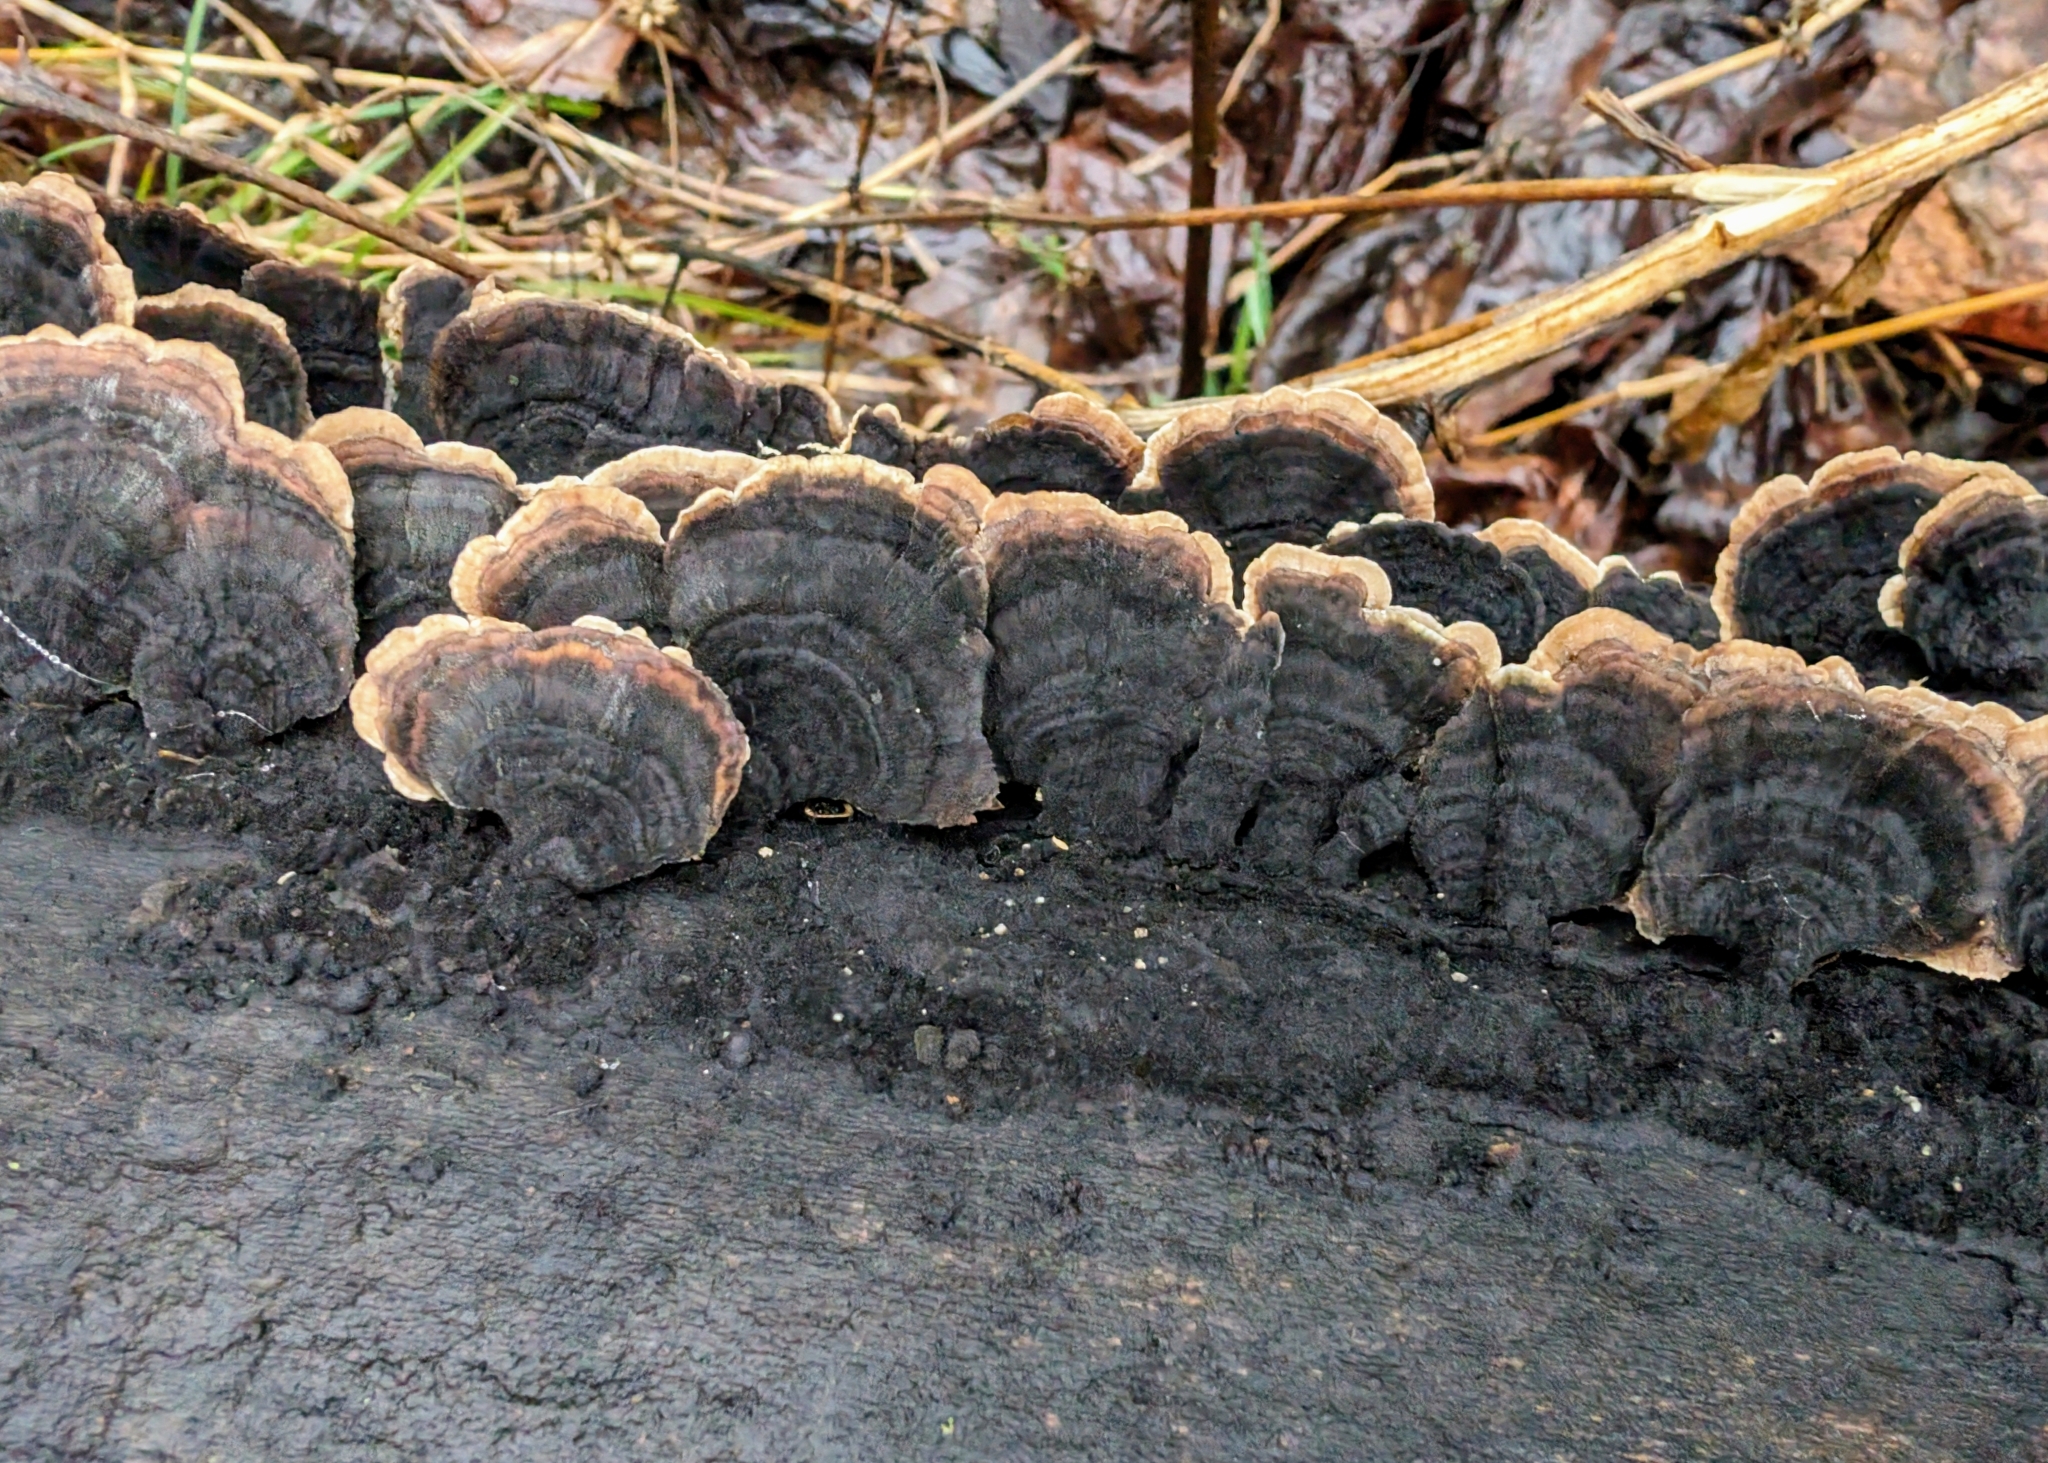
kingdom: Fungi
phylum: Basidiomycota
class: Agaricomycetes
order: Polyporales
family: Polyporaceae
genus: Trametes
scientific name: Trametes versicolor
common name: Turkeytail
